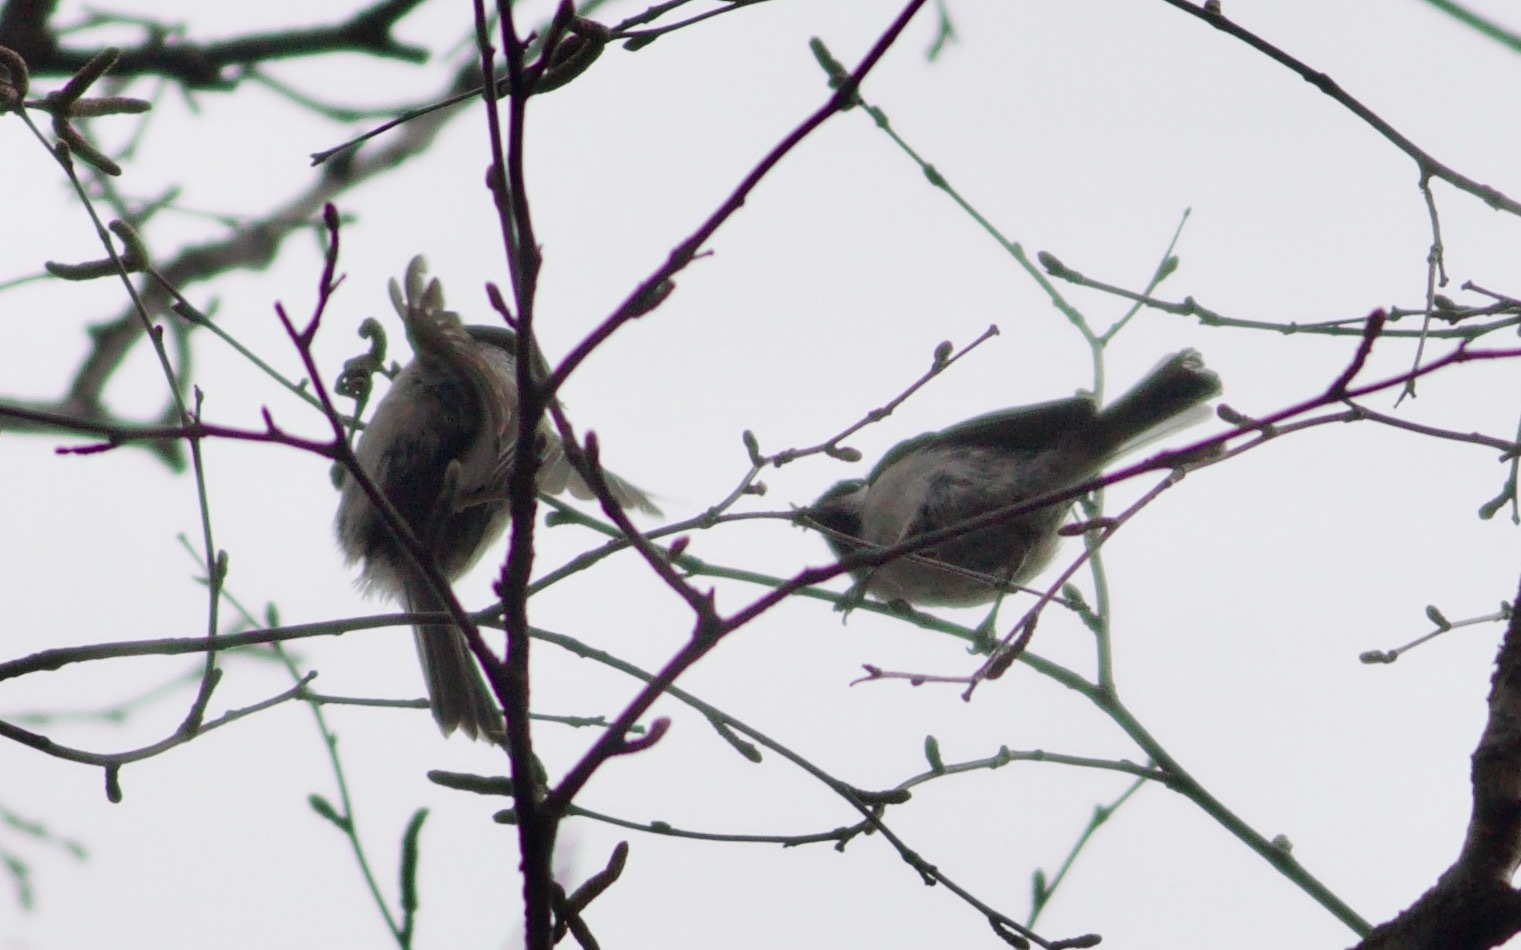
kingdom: Animalia
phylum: Chordata
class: Aves
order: Passeriformes
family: Paridae
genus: Poecile
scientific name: Poecile montanus
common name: Willow tit
